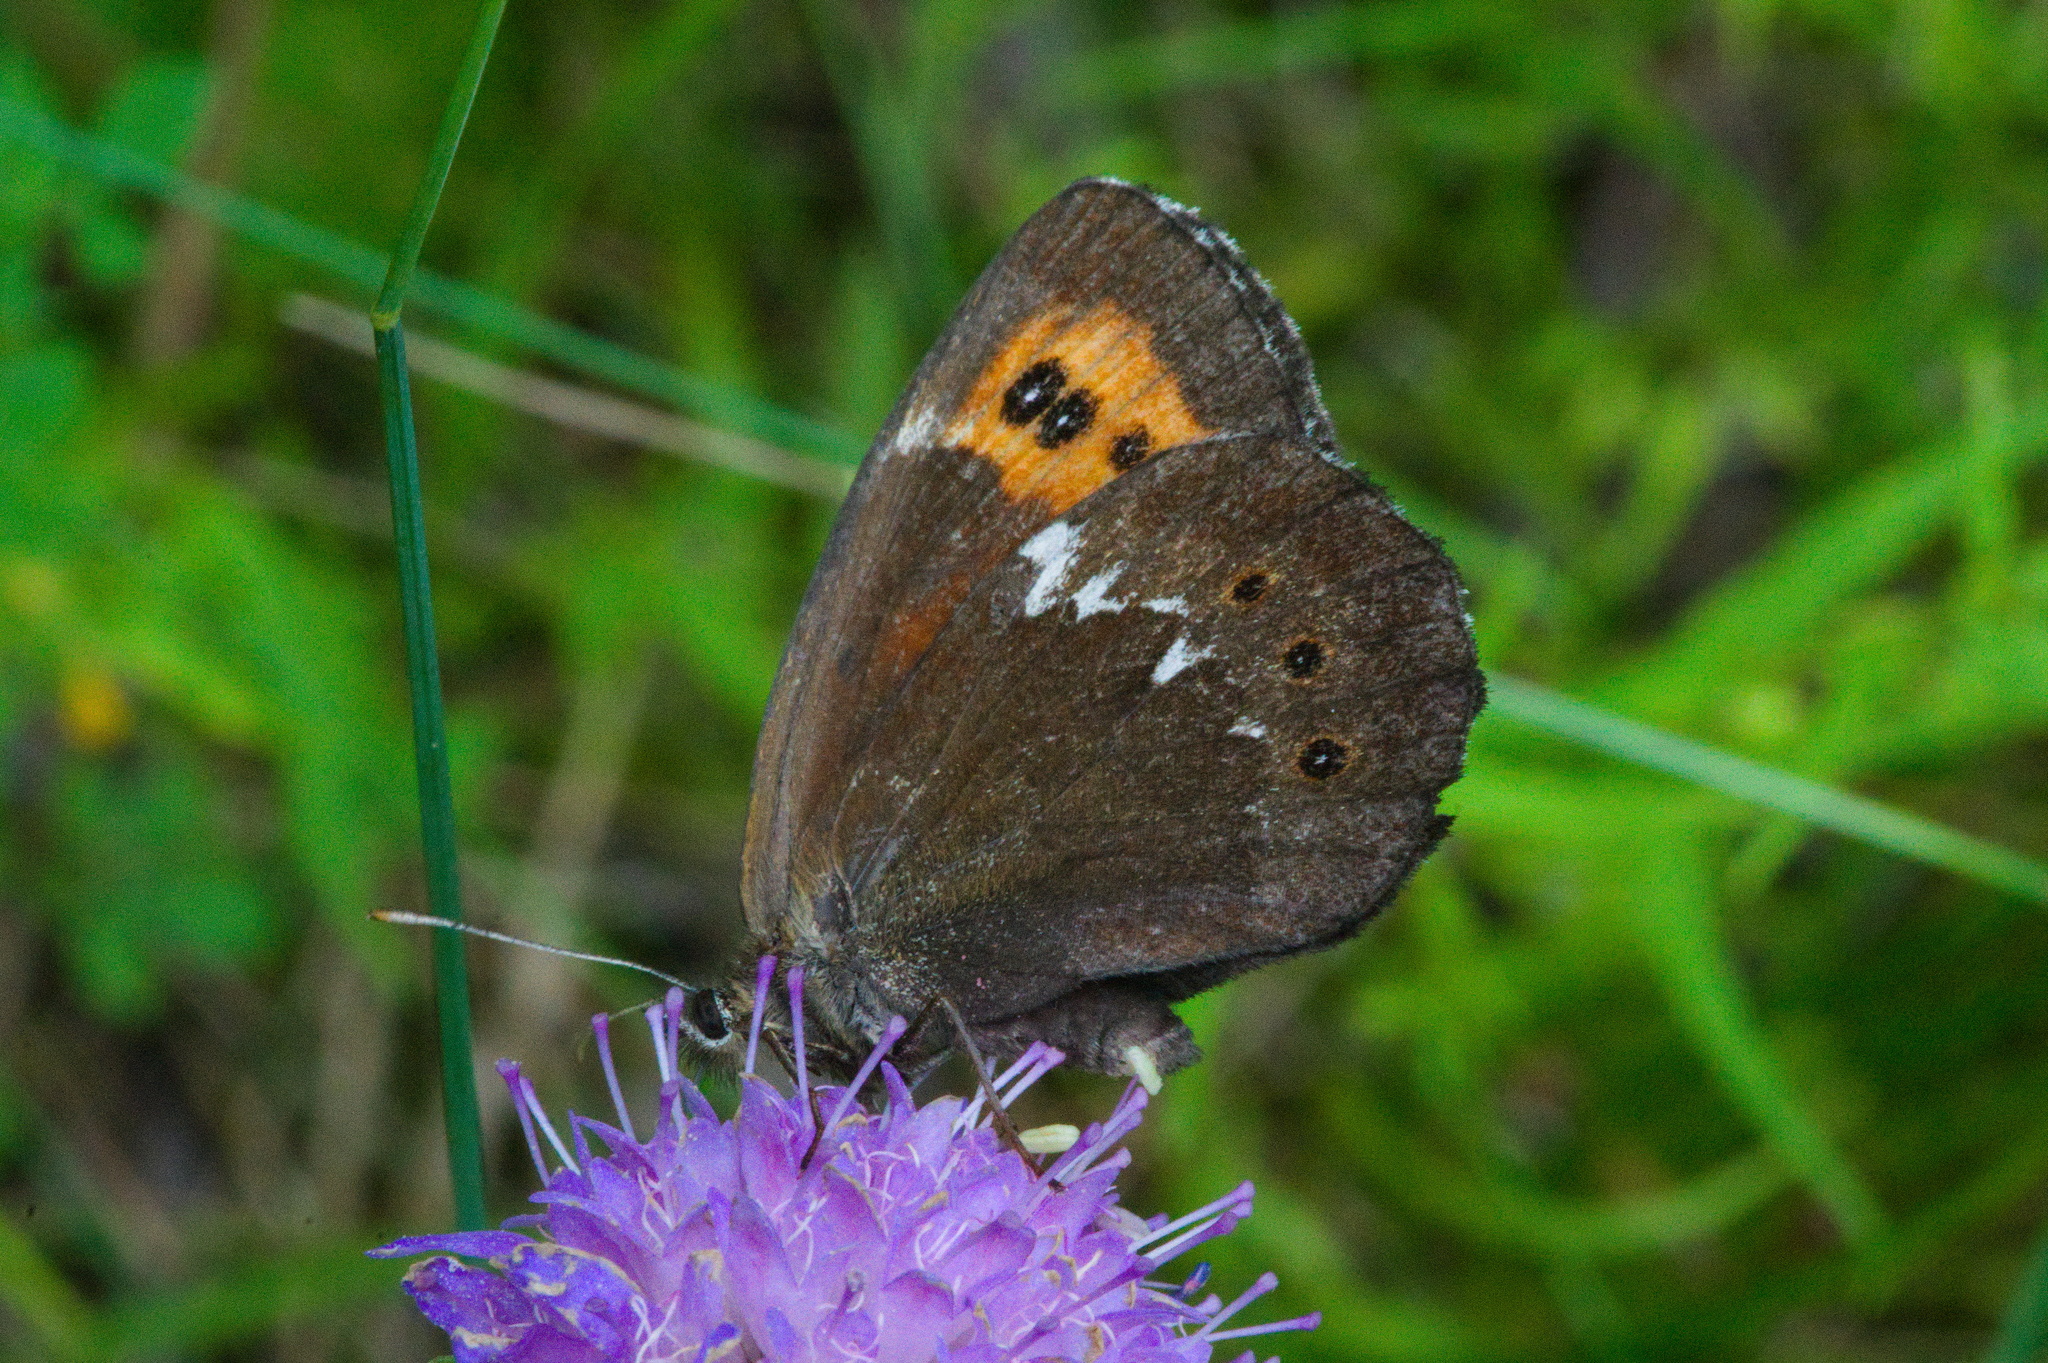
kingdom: Animalia
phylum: Arthropoda
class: Insecta
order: Lepidoptera
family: Nymphalidae
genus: Erebia
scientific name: Erebia ligea
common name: Arran brown
